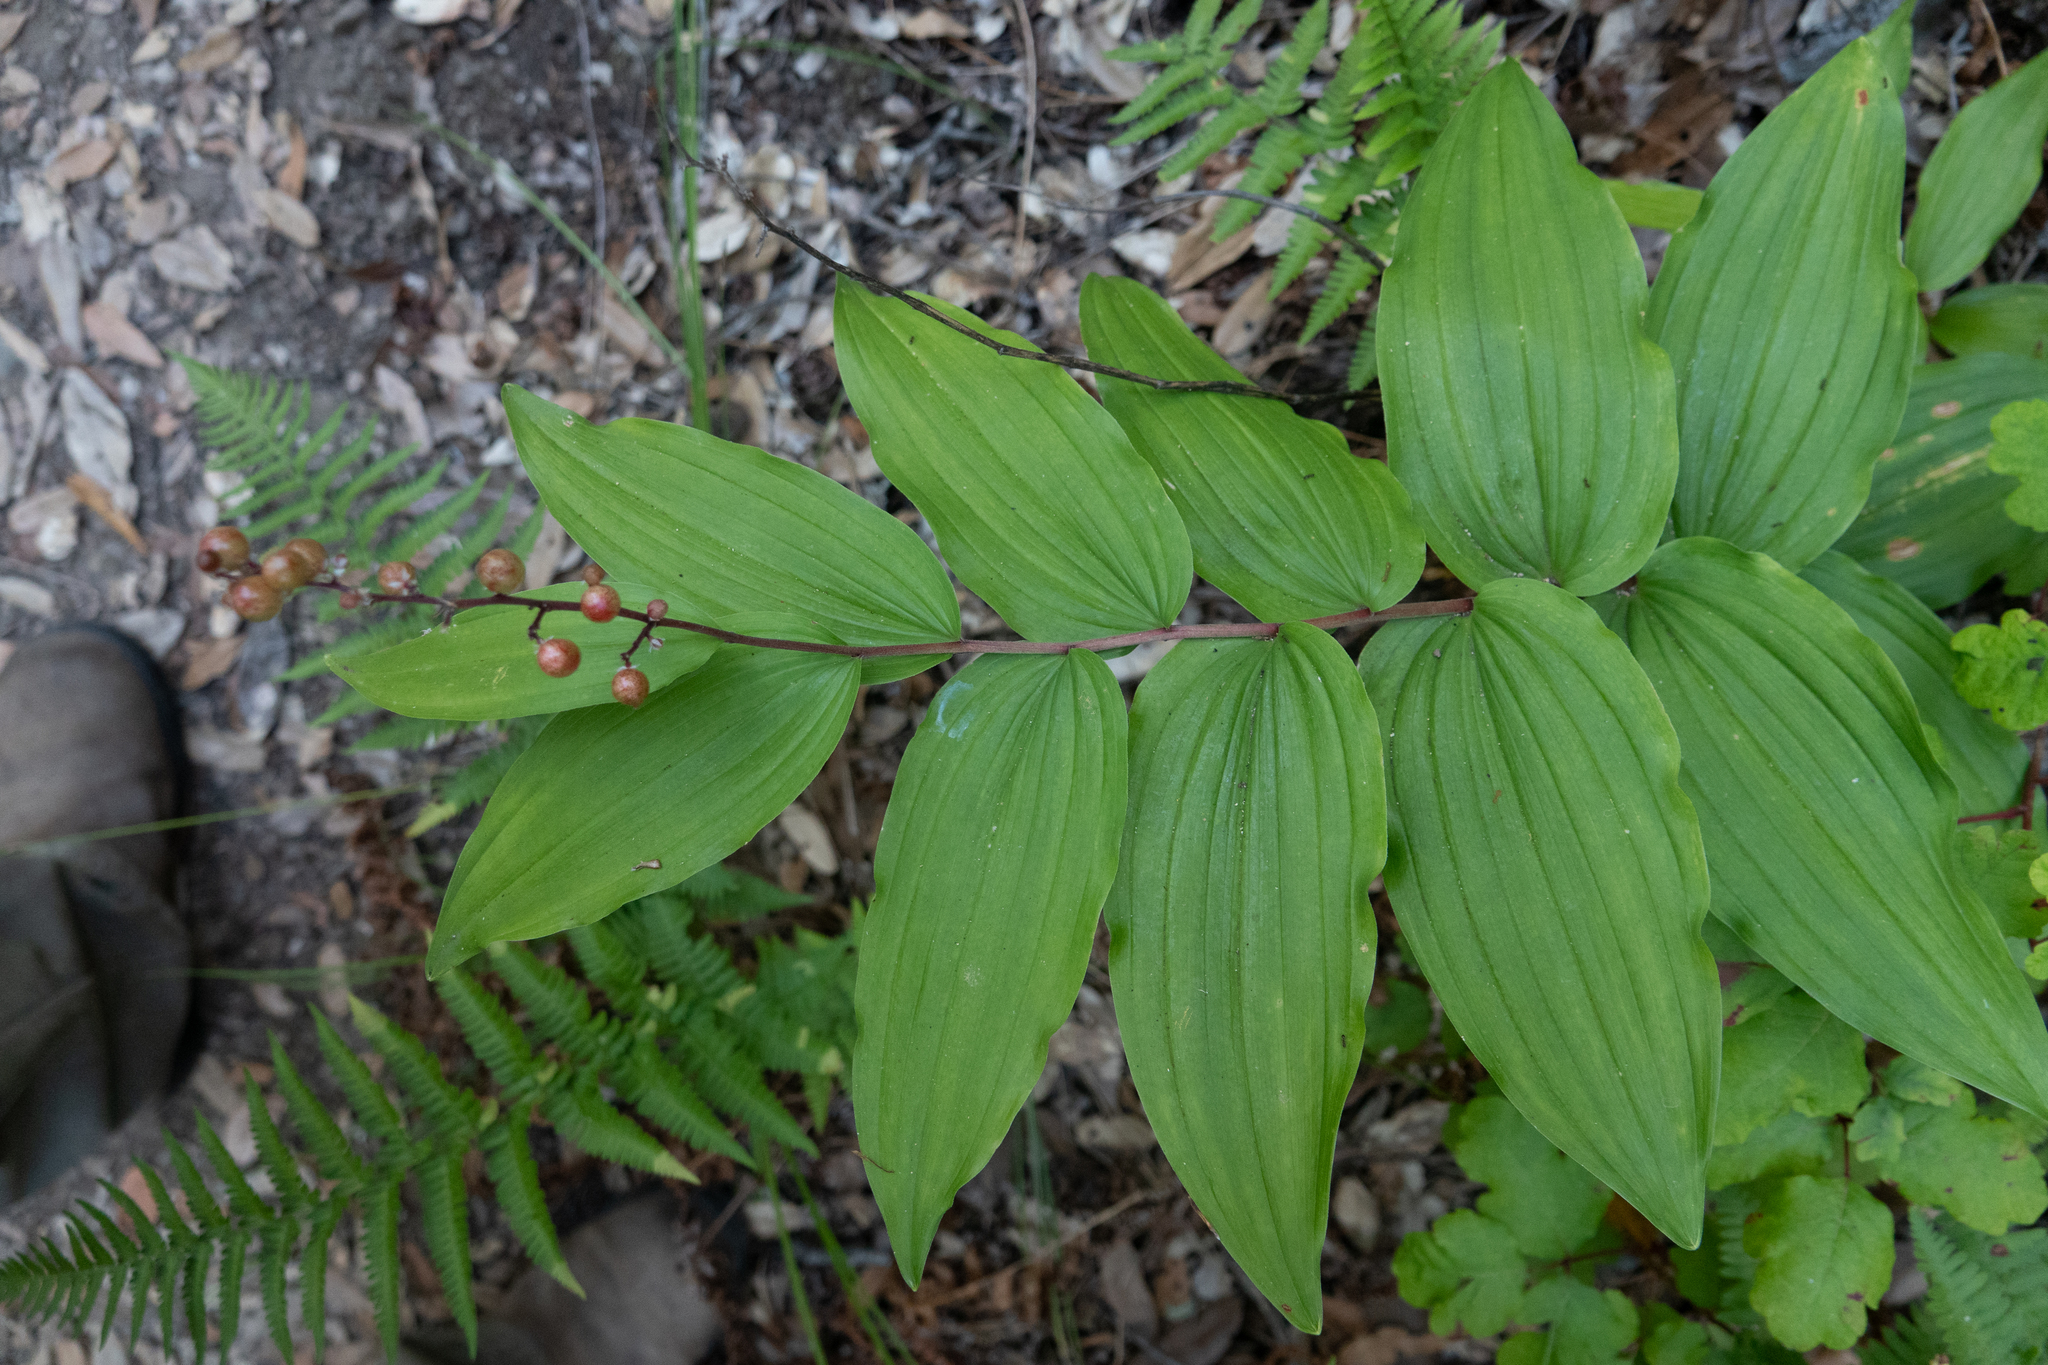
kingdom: Plantae
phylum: Tracheophyta
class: Liliopsida
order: Asparagales
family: Asparagaceae
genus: Maianthemum
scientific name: Maianthemum racemosum
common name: False spikenard
